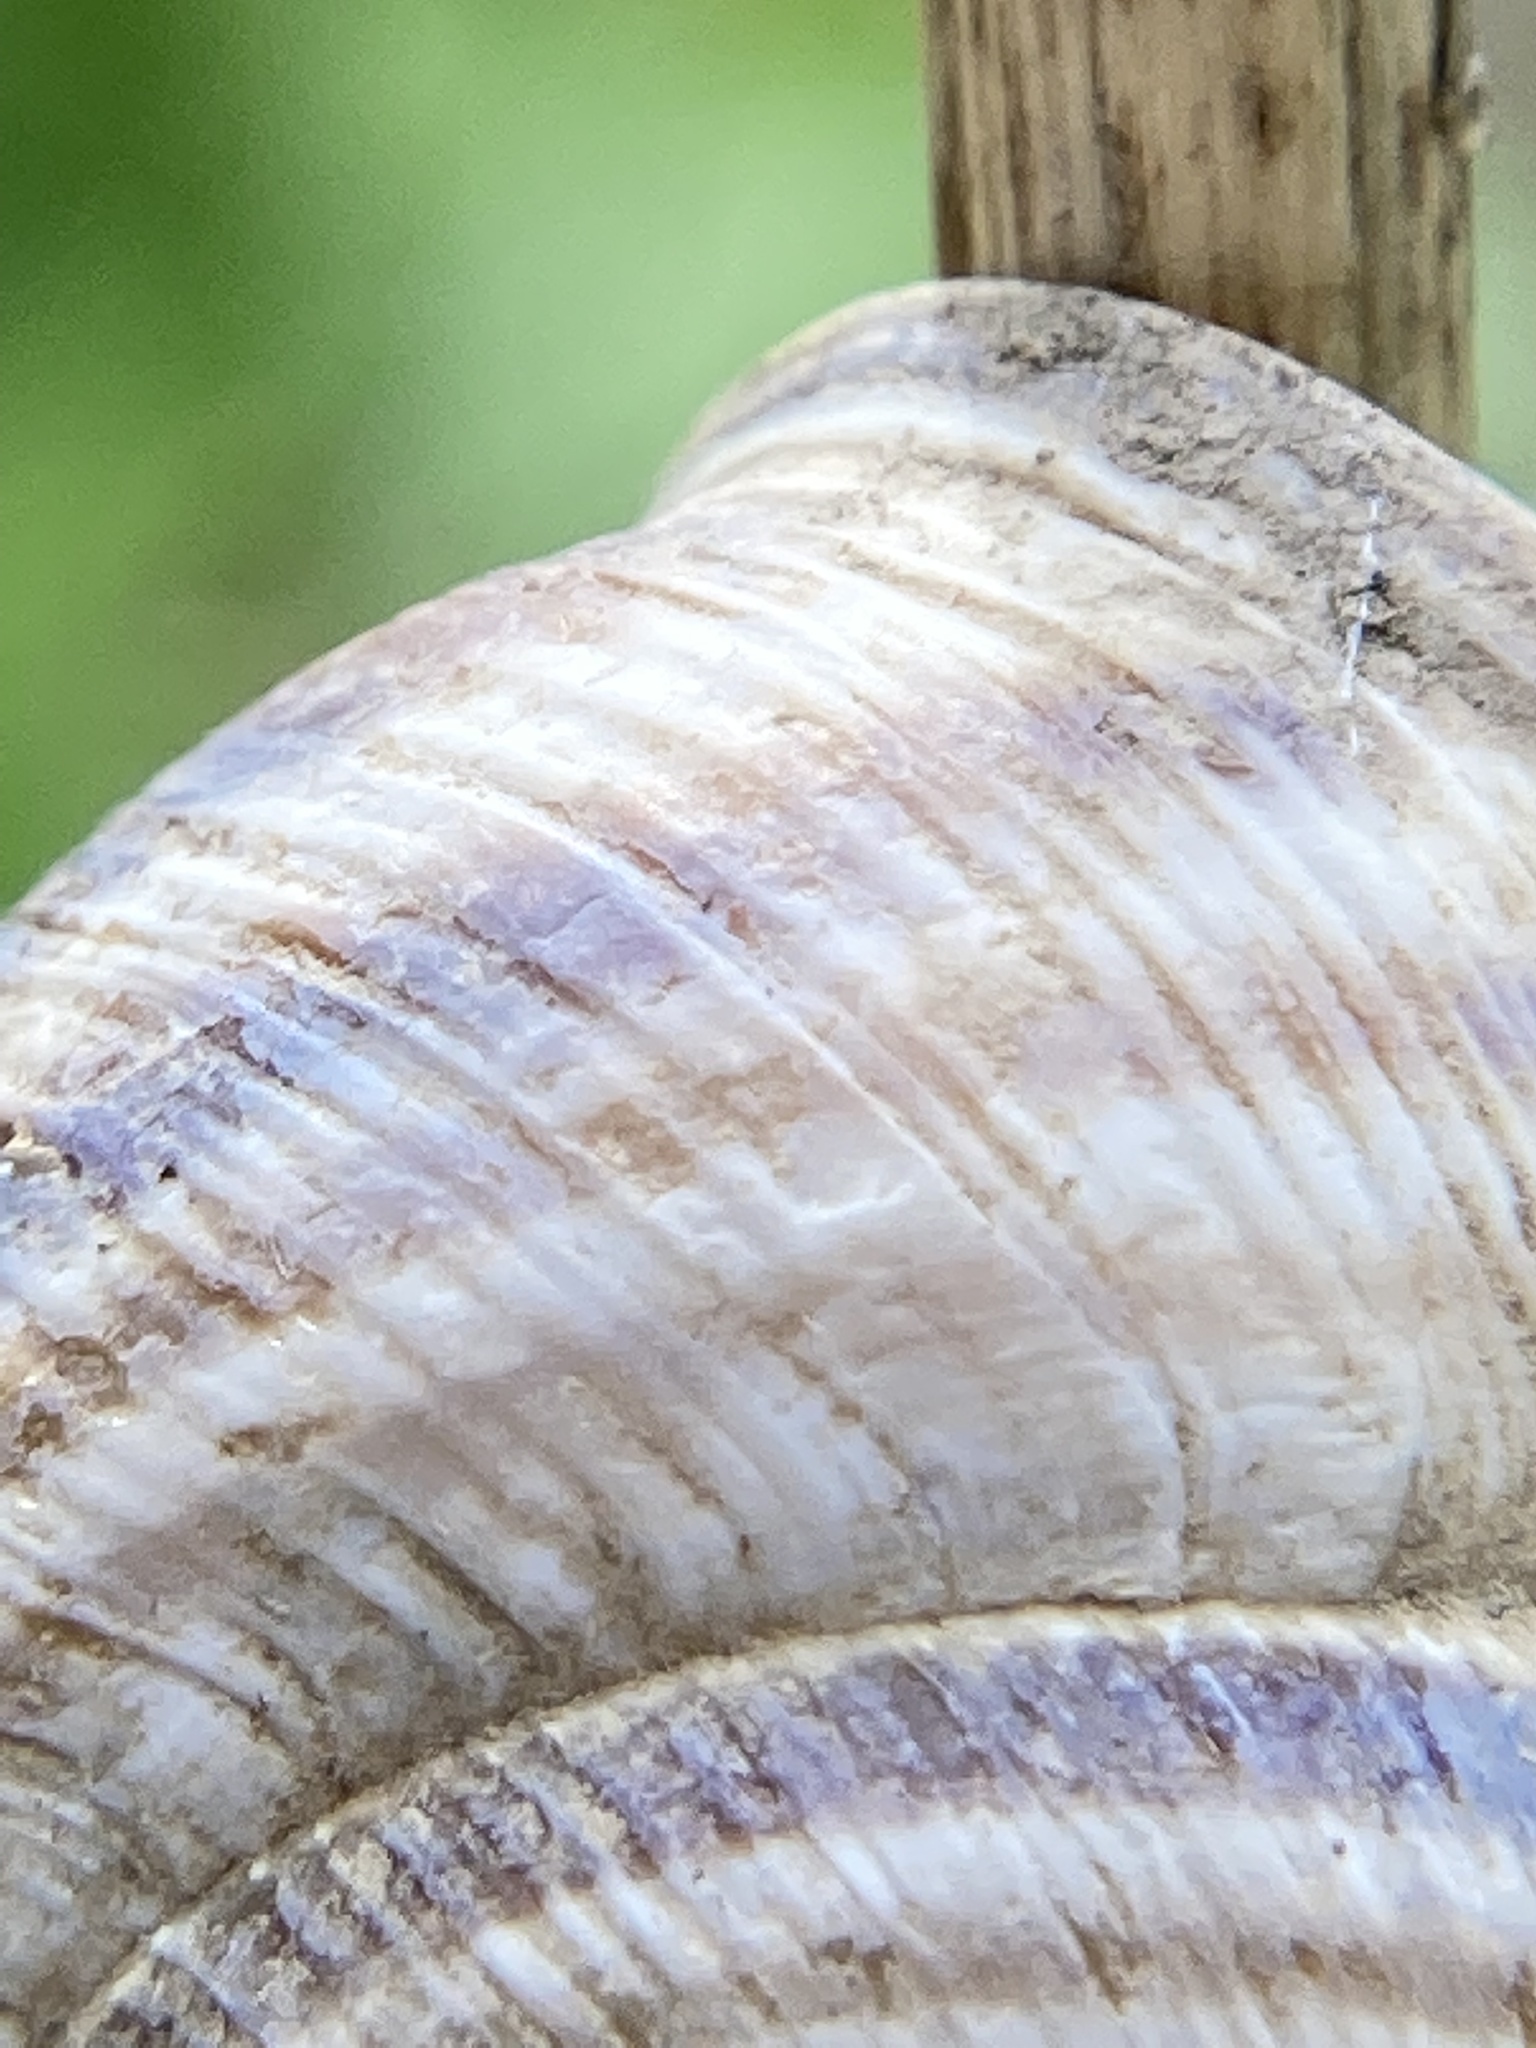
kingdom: Animalia
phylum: Mollusca
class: Gastropoda
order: Stylommatophora
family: Helicidae
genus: Caucasotachea
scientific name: Caucasotachea vindobonensis
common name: European helicid land snail
